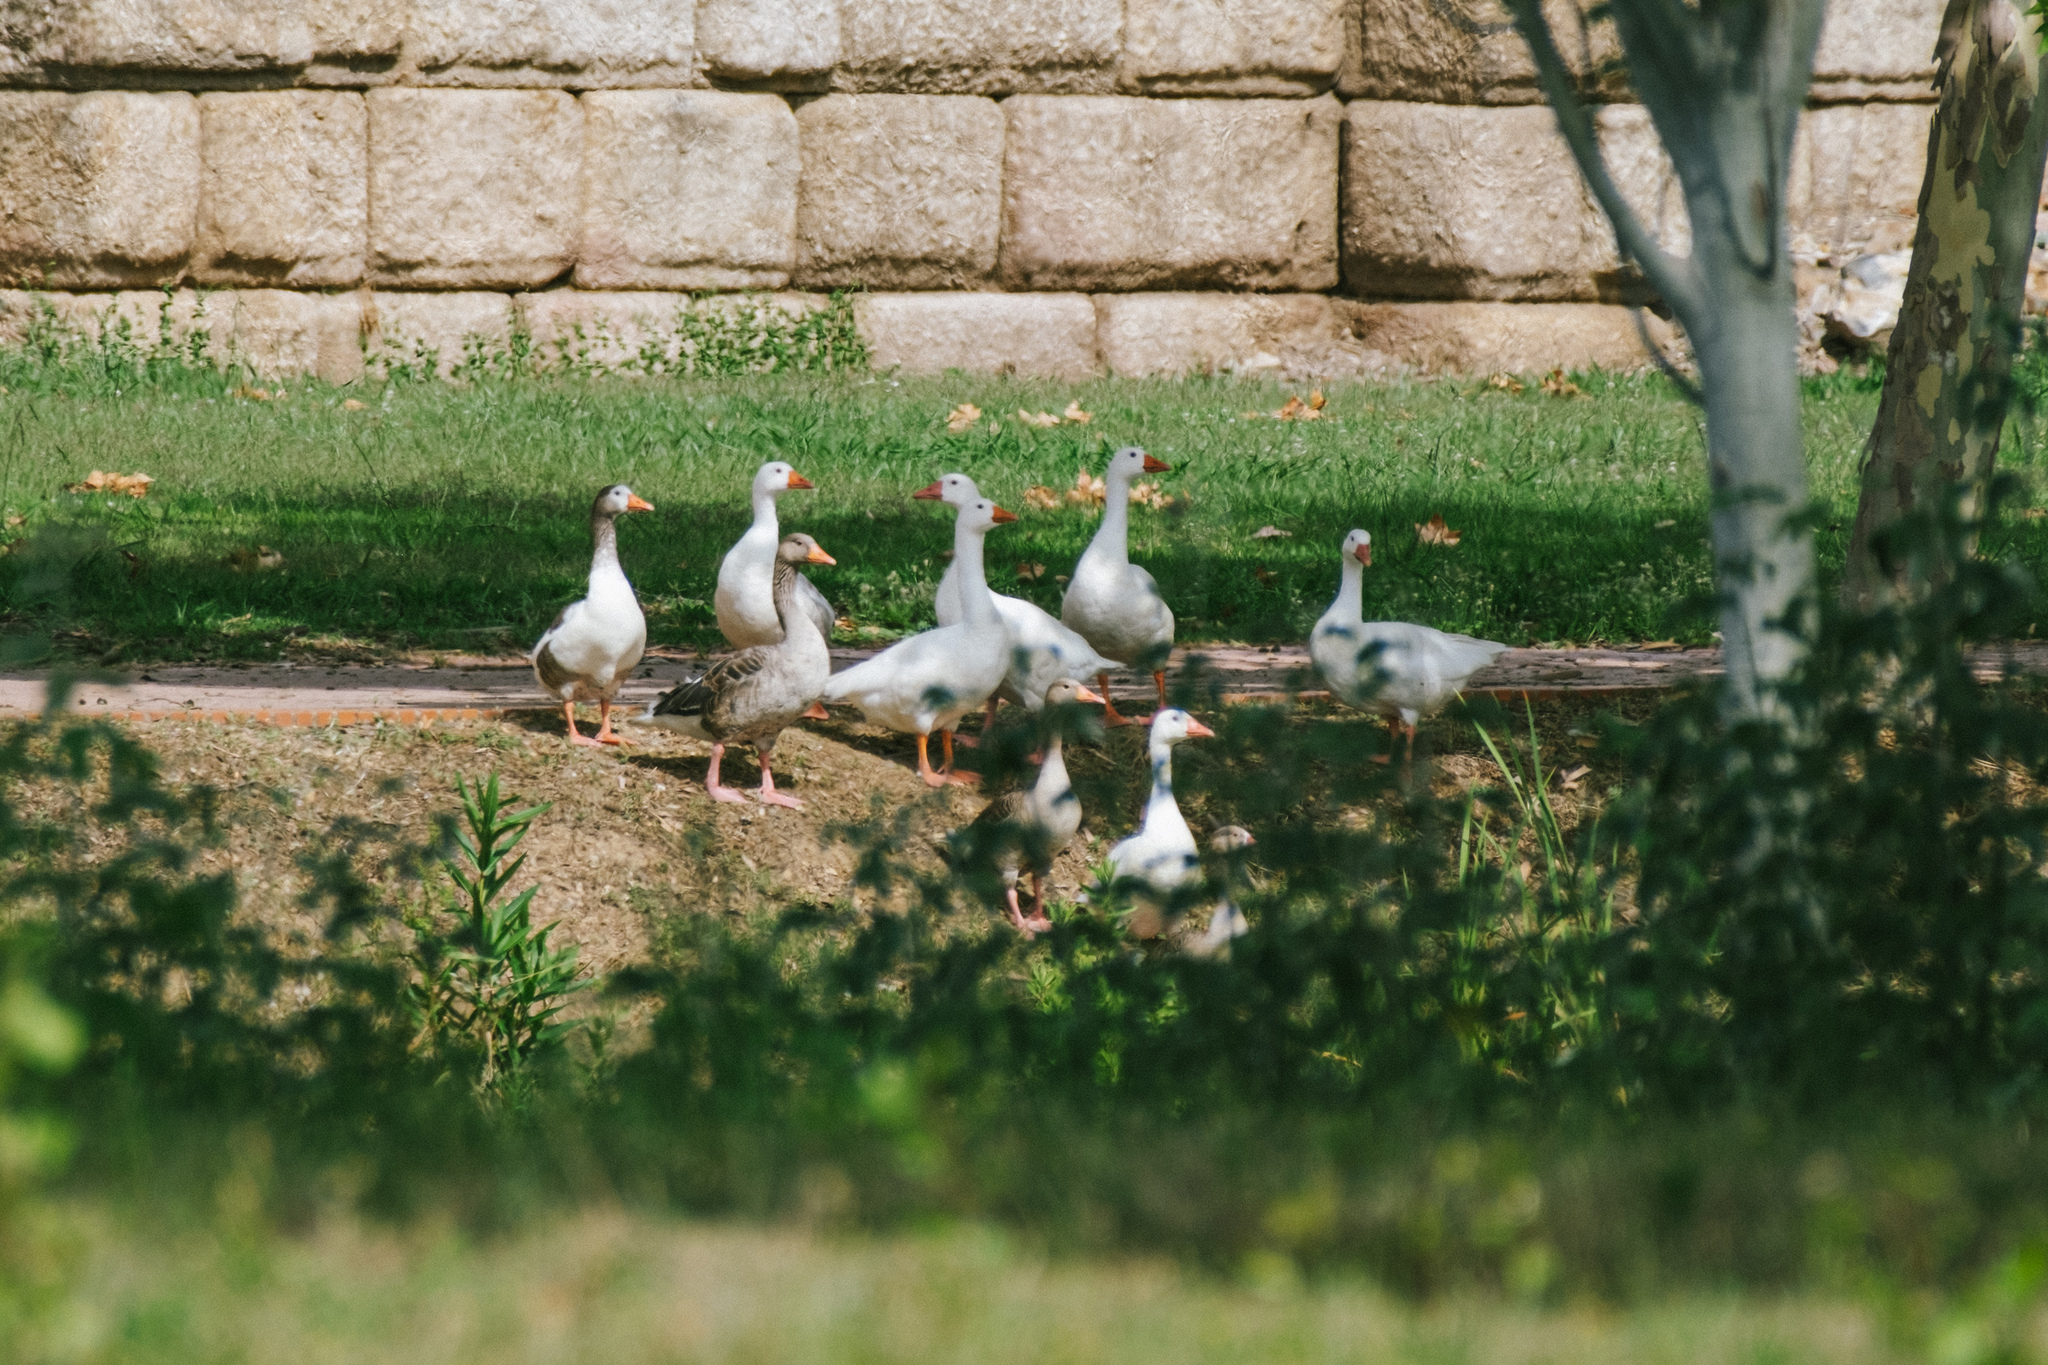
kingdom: Animalia
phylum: Chordata
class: Aves
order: Anseriformes
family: Anatidae
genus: Anser
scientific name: Anser anser
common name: Greylag goose
